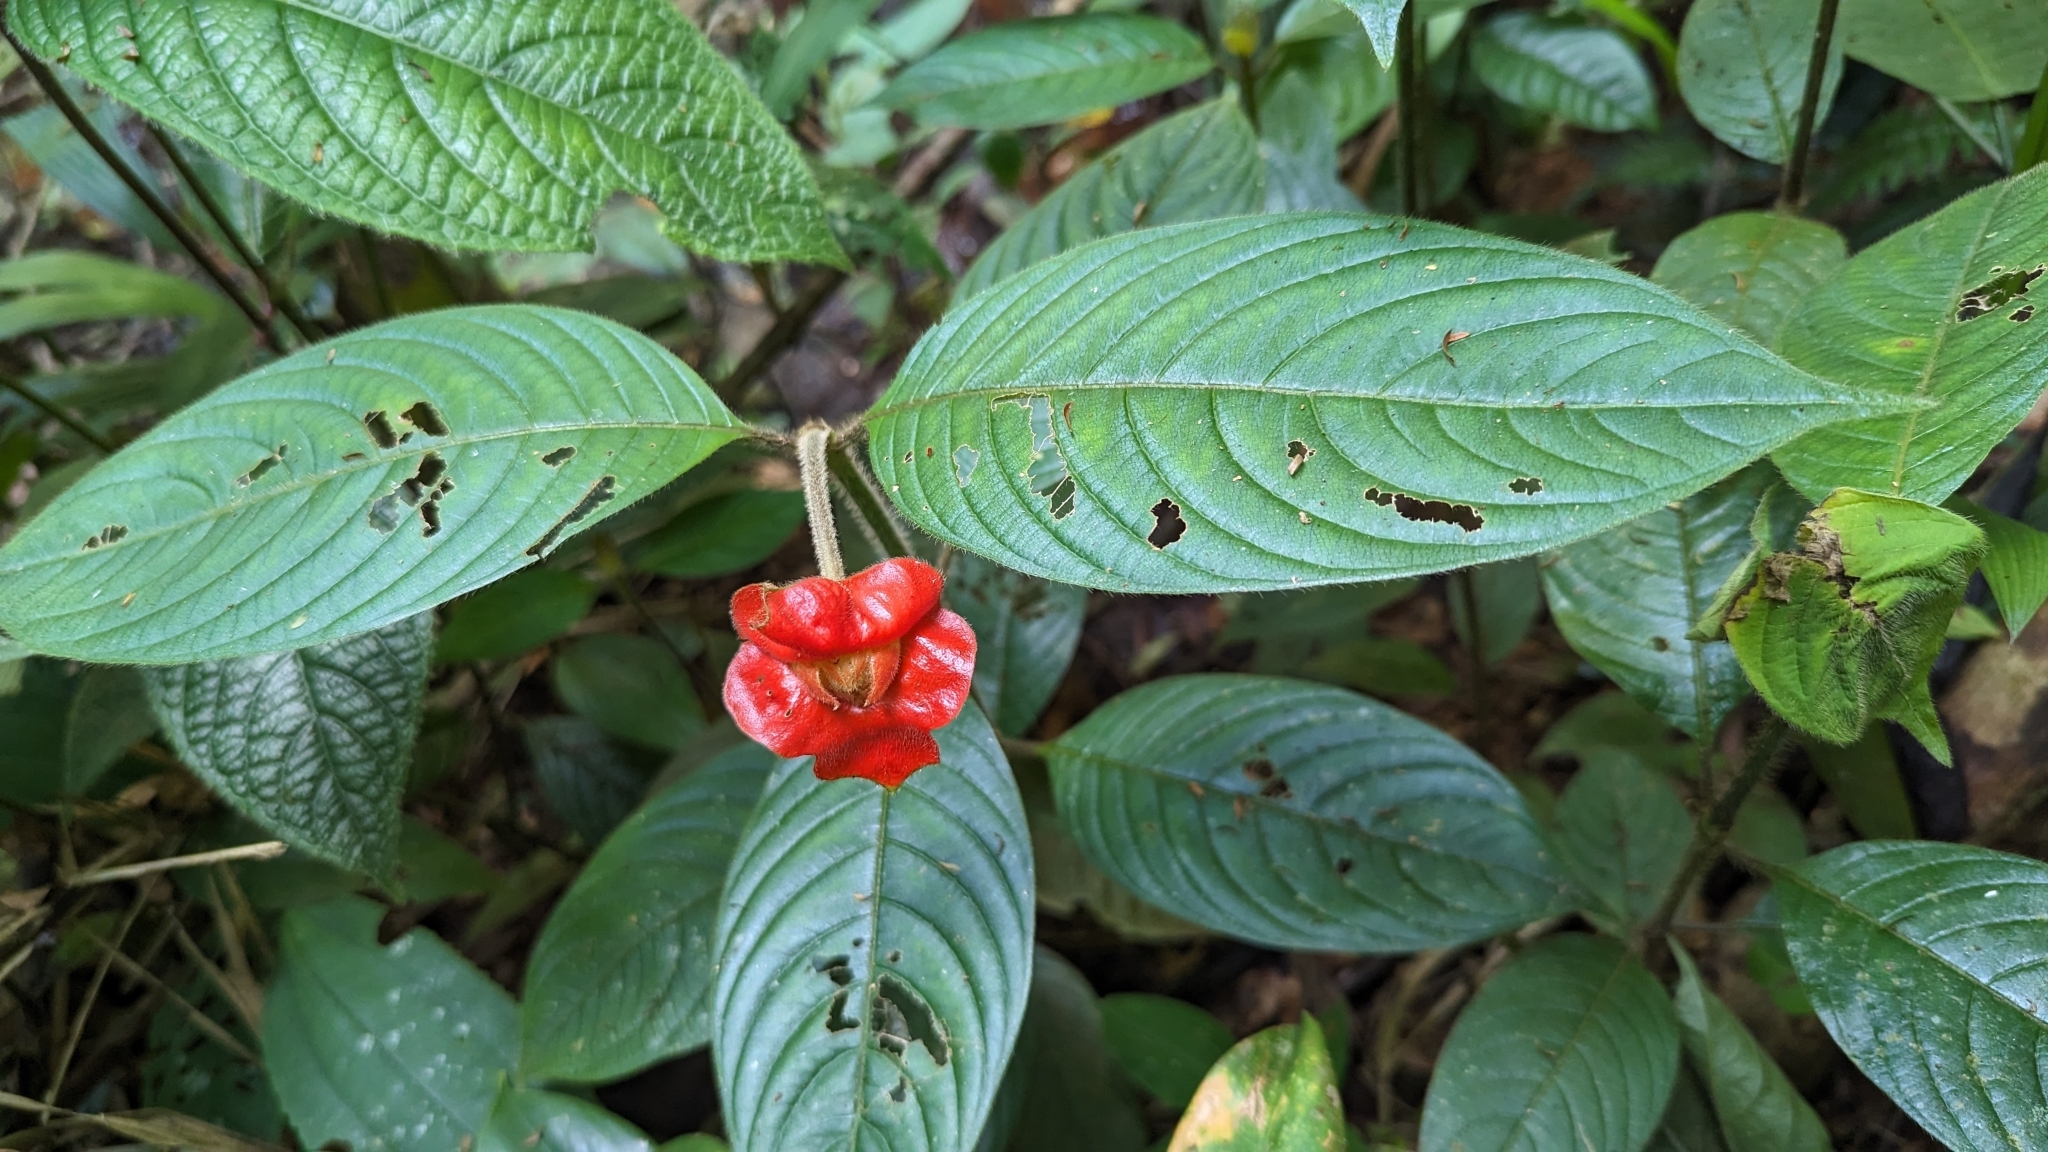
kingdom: Plantae
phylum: Tracheophyta
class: Magnoliopsida
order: Gentianales
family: Rubiaceae
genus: Palicourea
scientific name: Palicourea tomentosa
